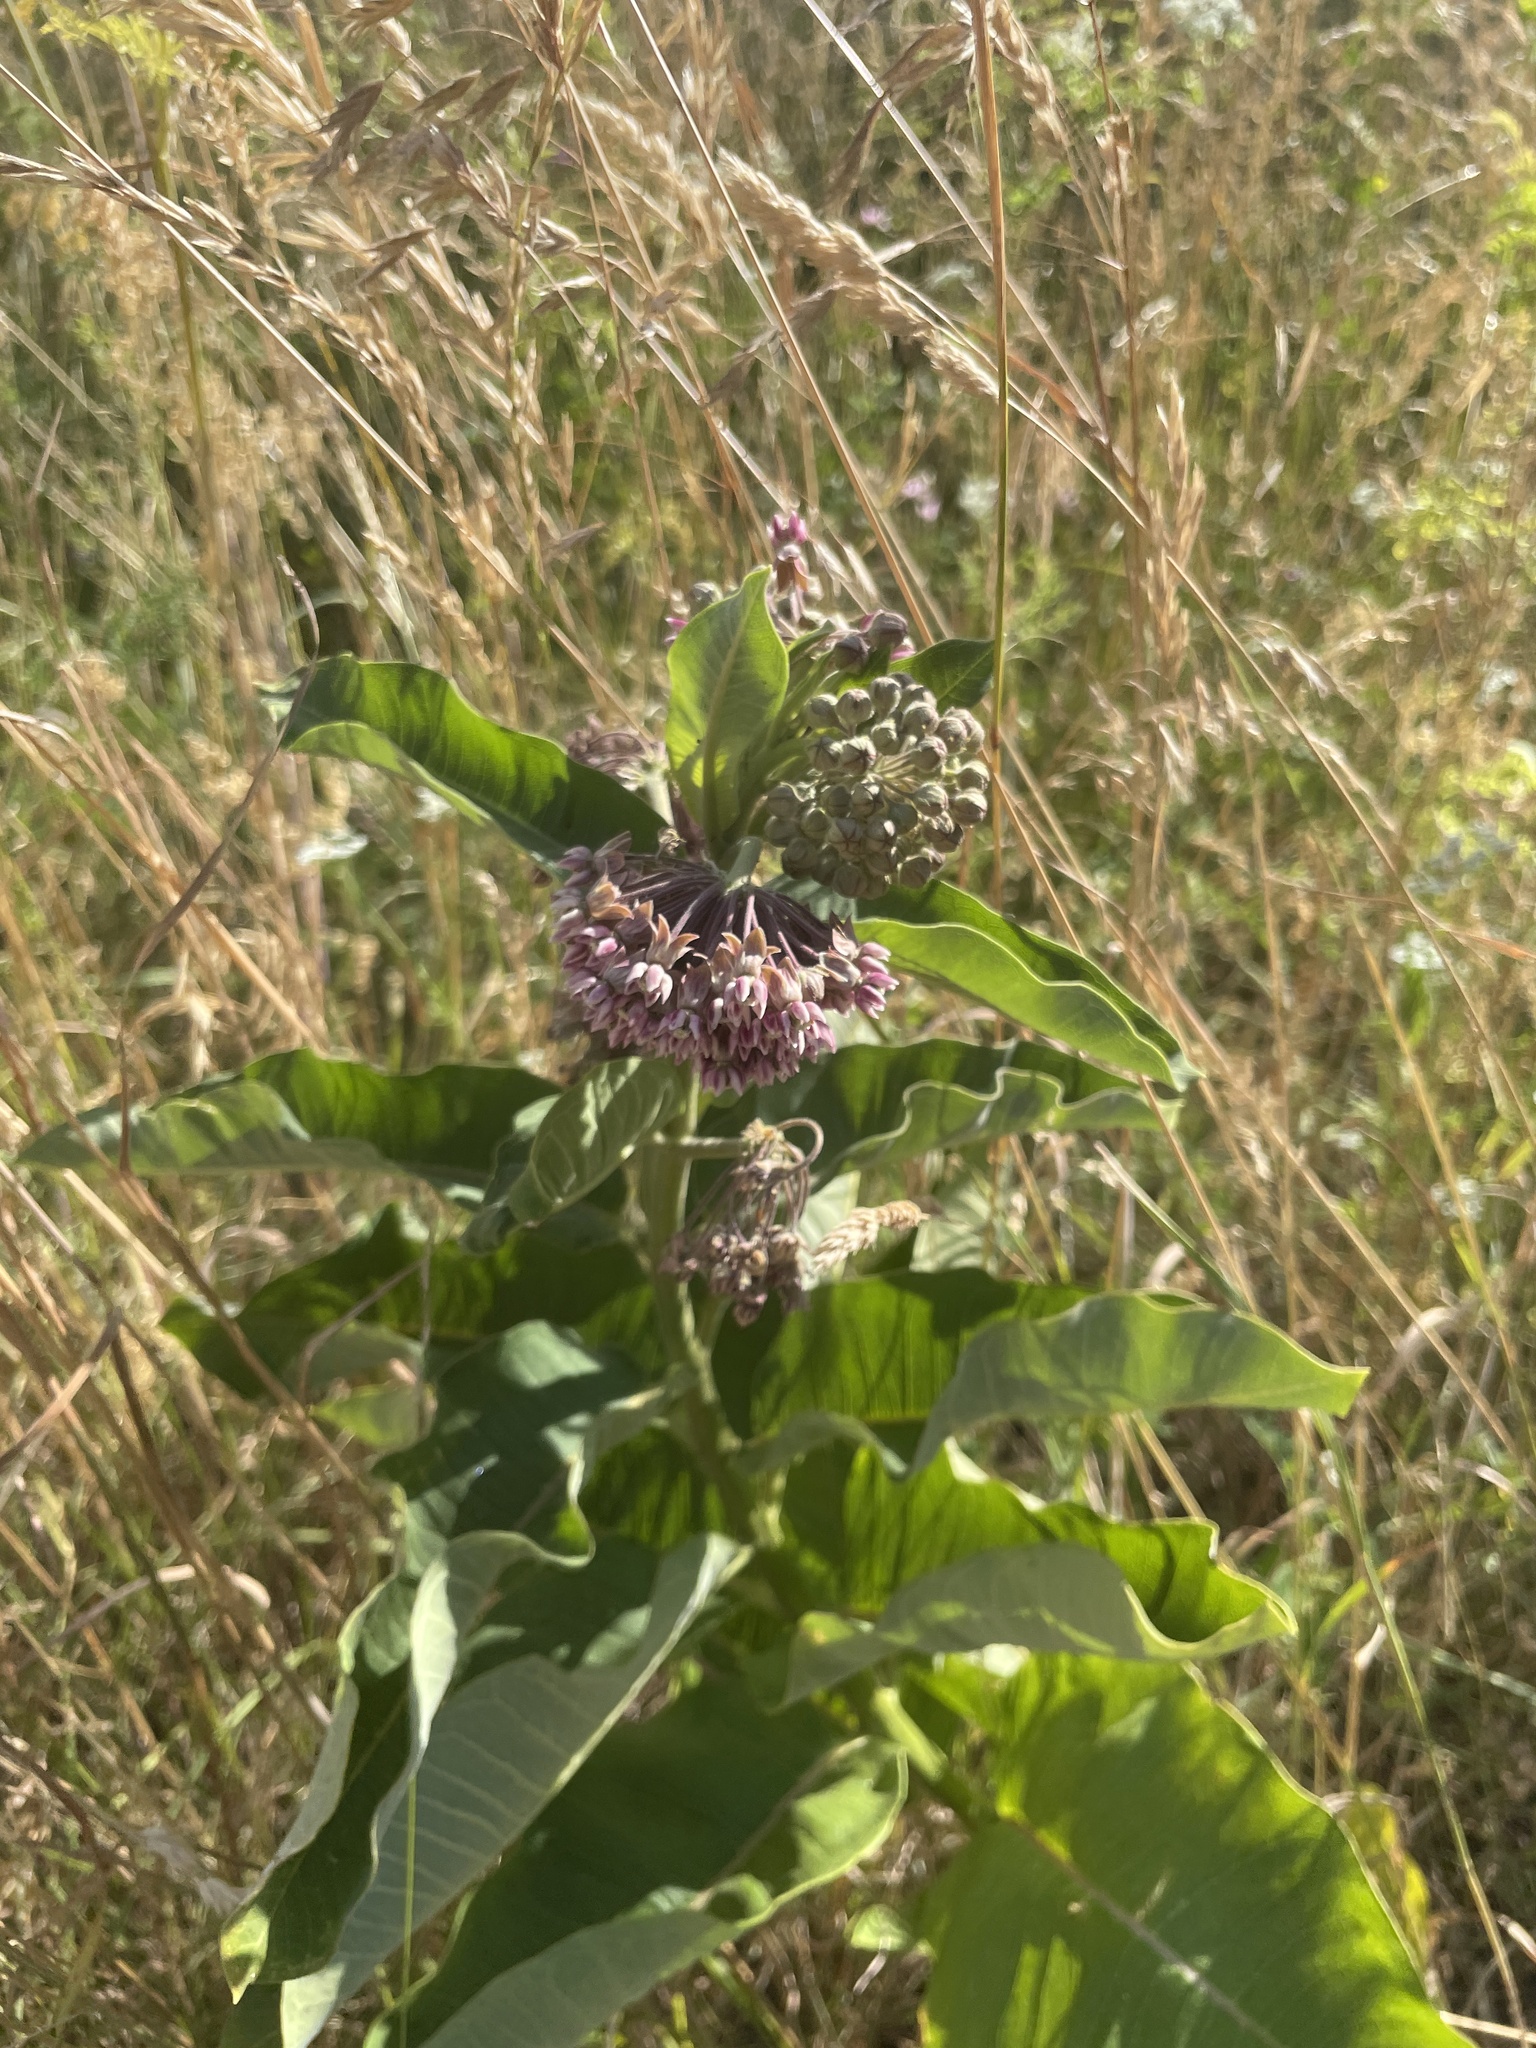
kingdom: Plantae
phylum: Tracheophyta
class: Magnoliopsida
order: Gentianales
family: Apocynaceae
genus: Asclepias
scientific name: Asclepias syriaca
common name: Common milkweed
